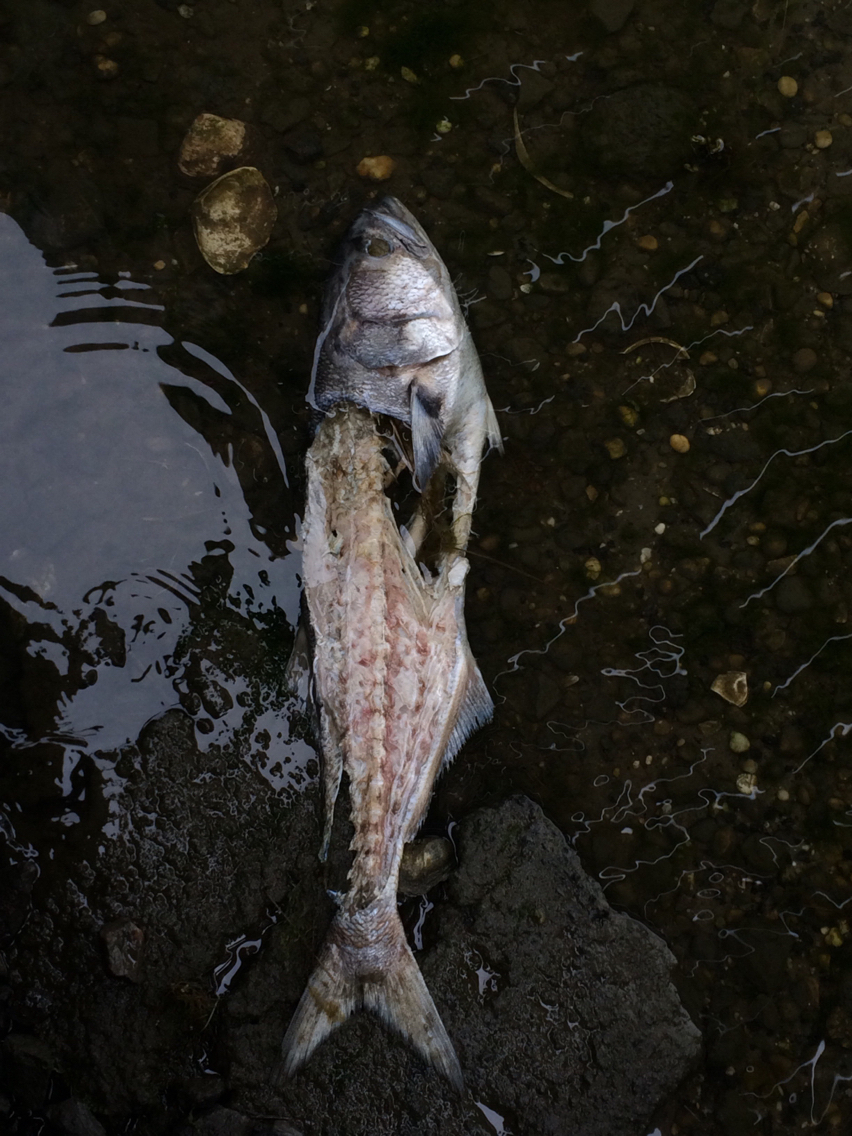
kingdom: Animalia
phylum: Chordata
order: Perciformes
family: Pomatomidae
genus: Pomatomus
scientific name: Pomatomus saltatrix
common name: Bluefish
